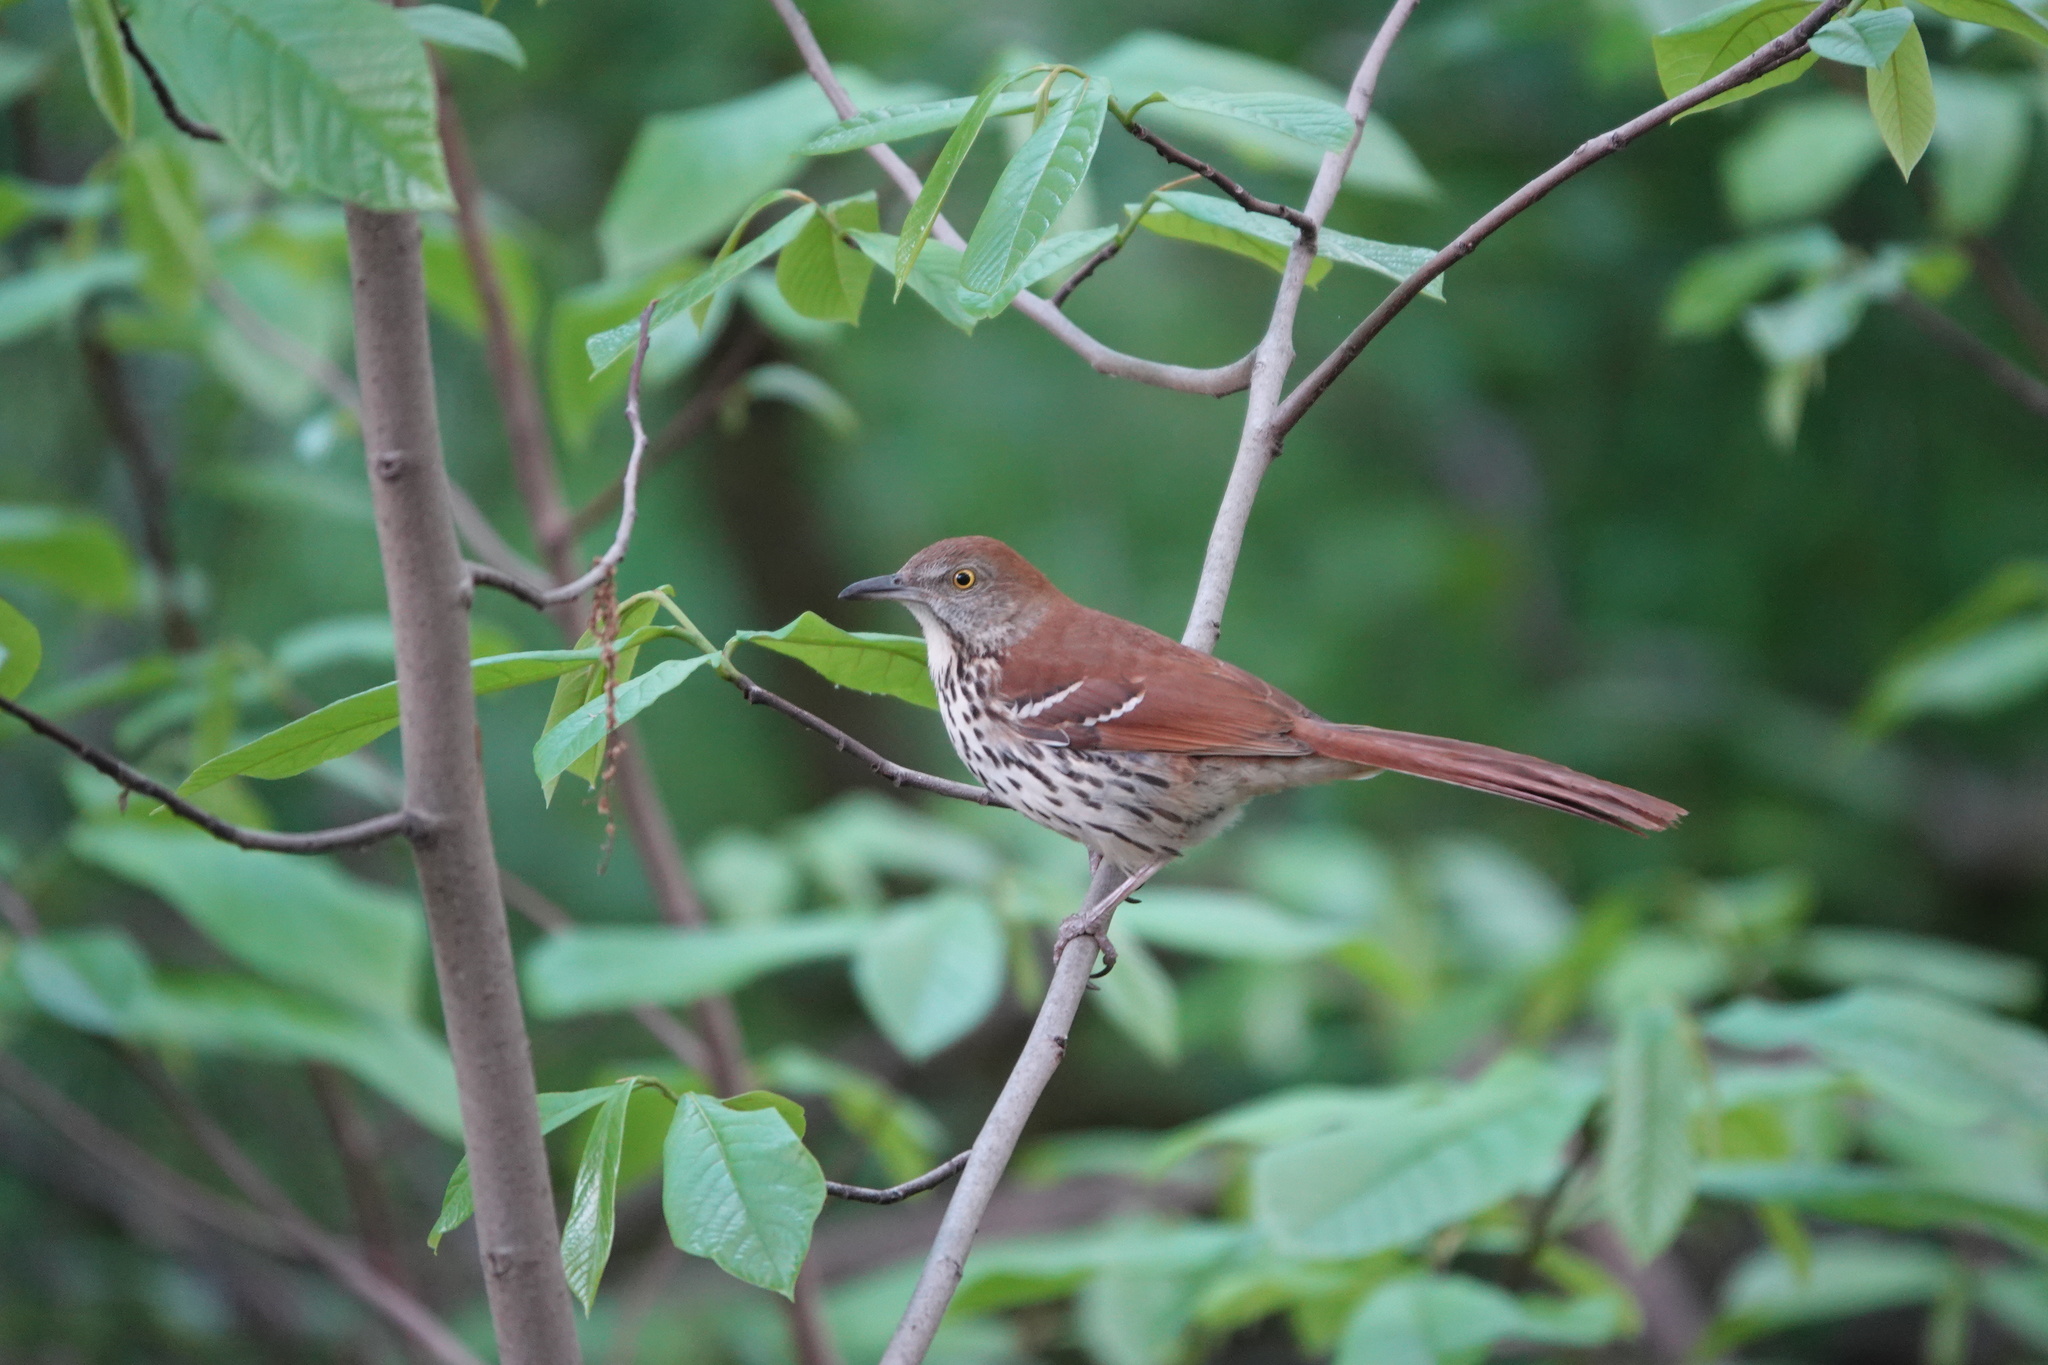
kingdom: Animalia
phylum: Chordata
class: Aves
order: Passeriformes
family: Mimidae
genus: Toxostoma
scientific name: Toxostoma rufum
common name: Brown thrasher
